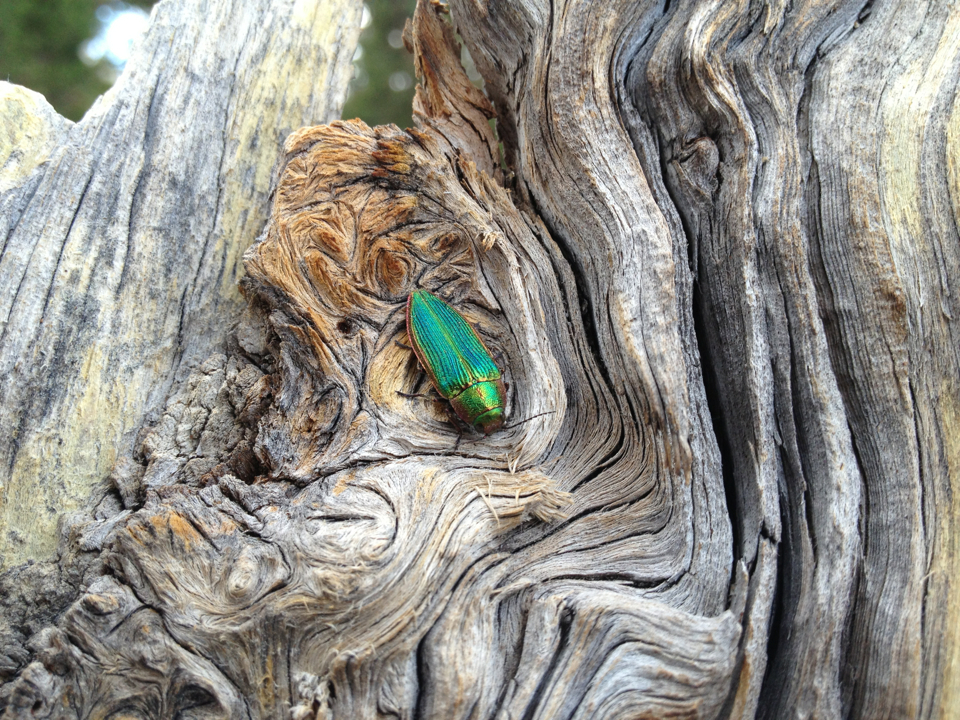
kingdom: Animalia
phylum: Arthropoda
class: Insecta
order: Coleoptera
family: Buprestidae
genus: Buprestis
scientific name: Buprestis intricata
